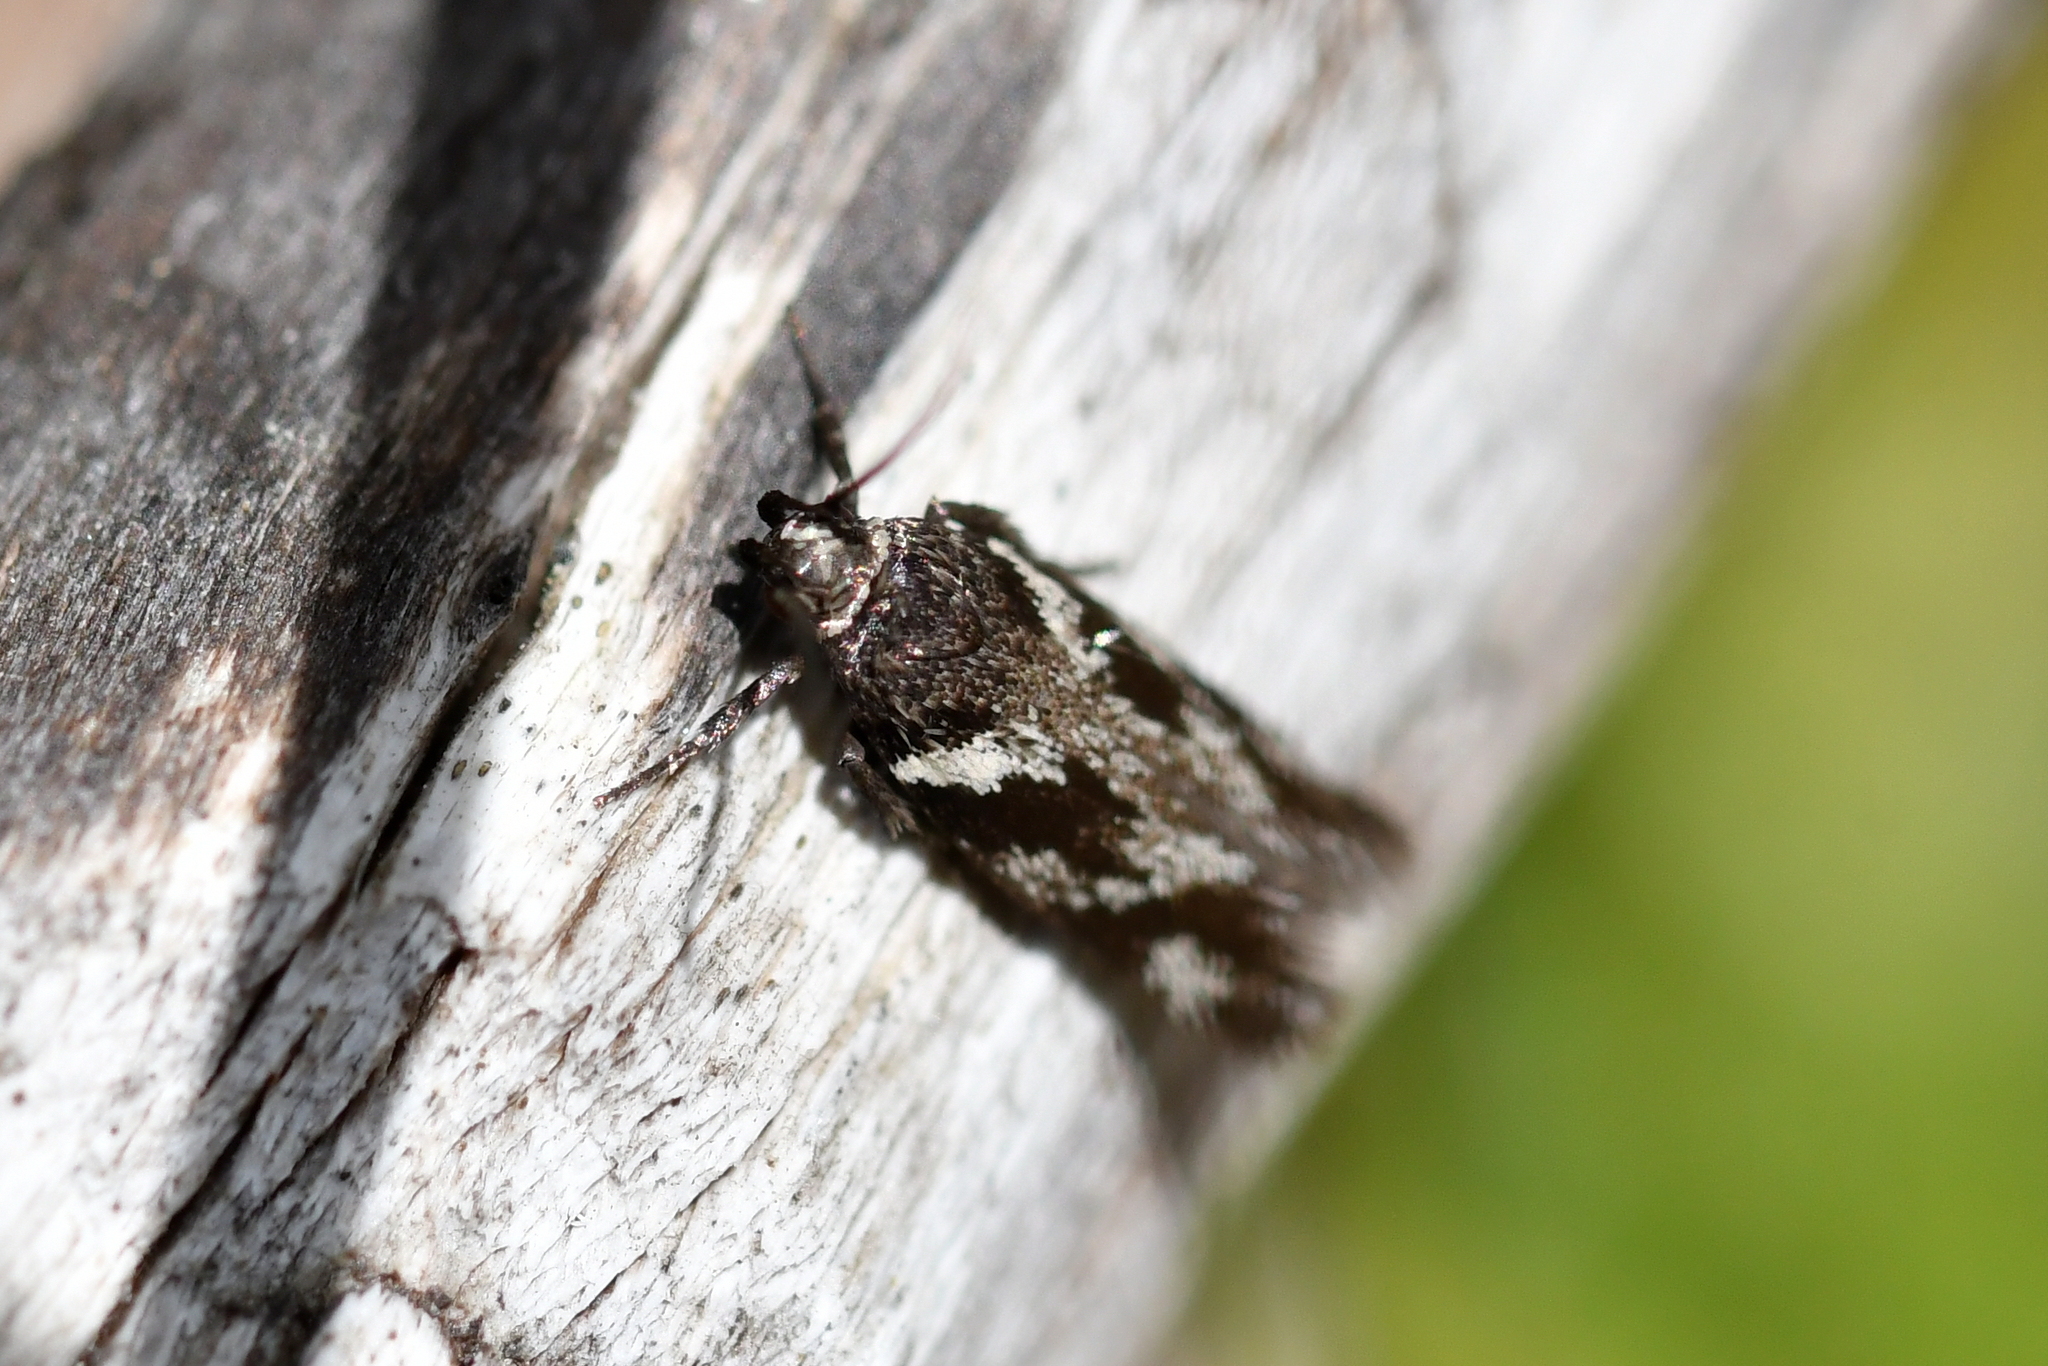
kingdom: Animalia
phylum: Arthropoda
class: Insecta
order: Lepidoptera
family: Oecophoridae
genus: Hierodoris
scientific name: Hierodoris insignis
